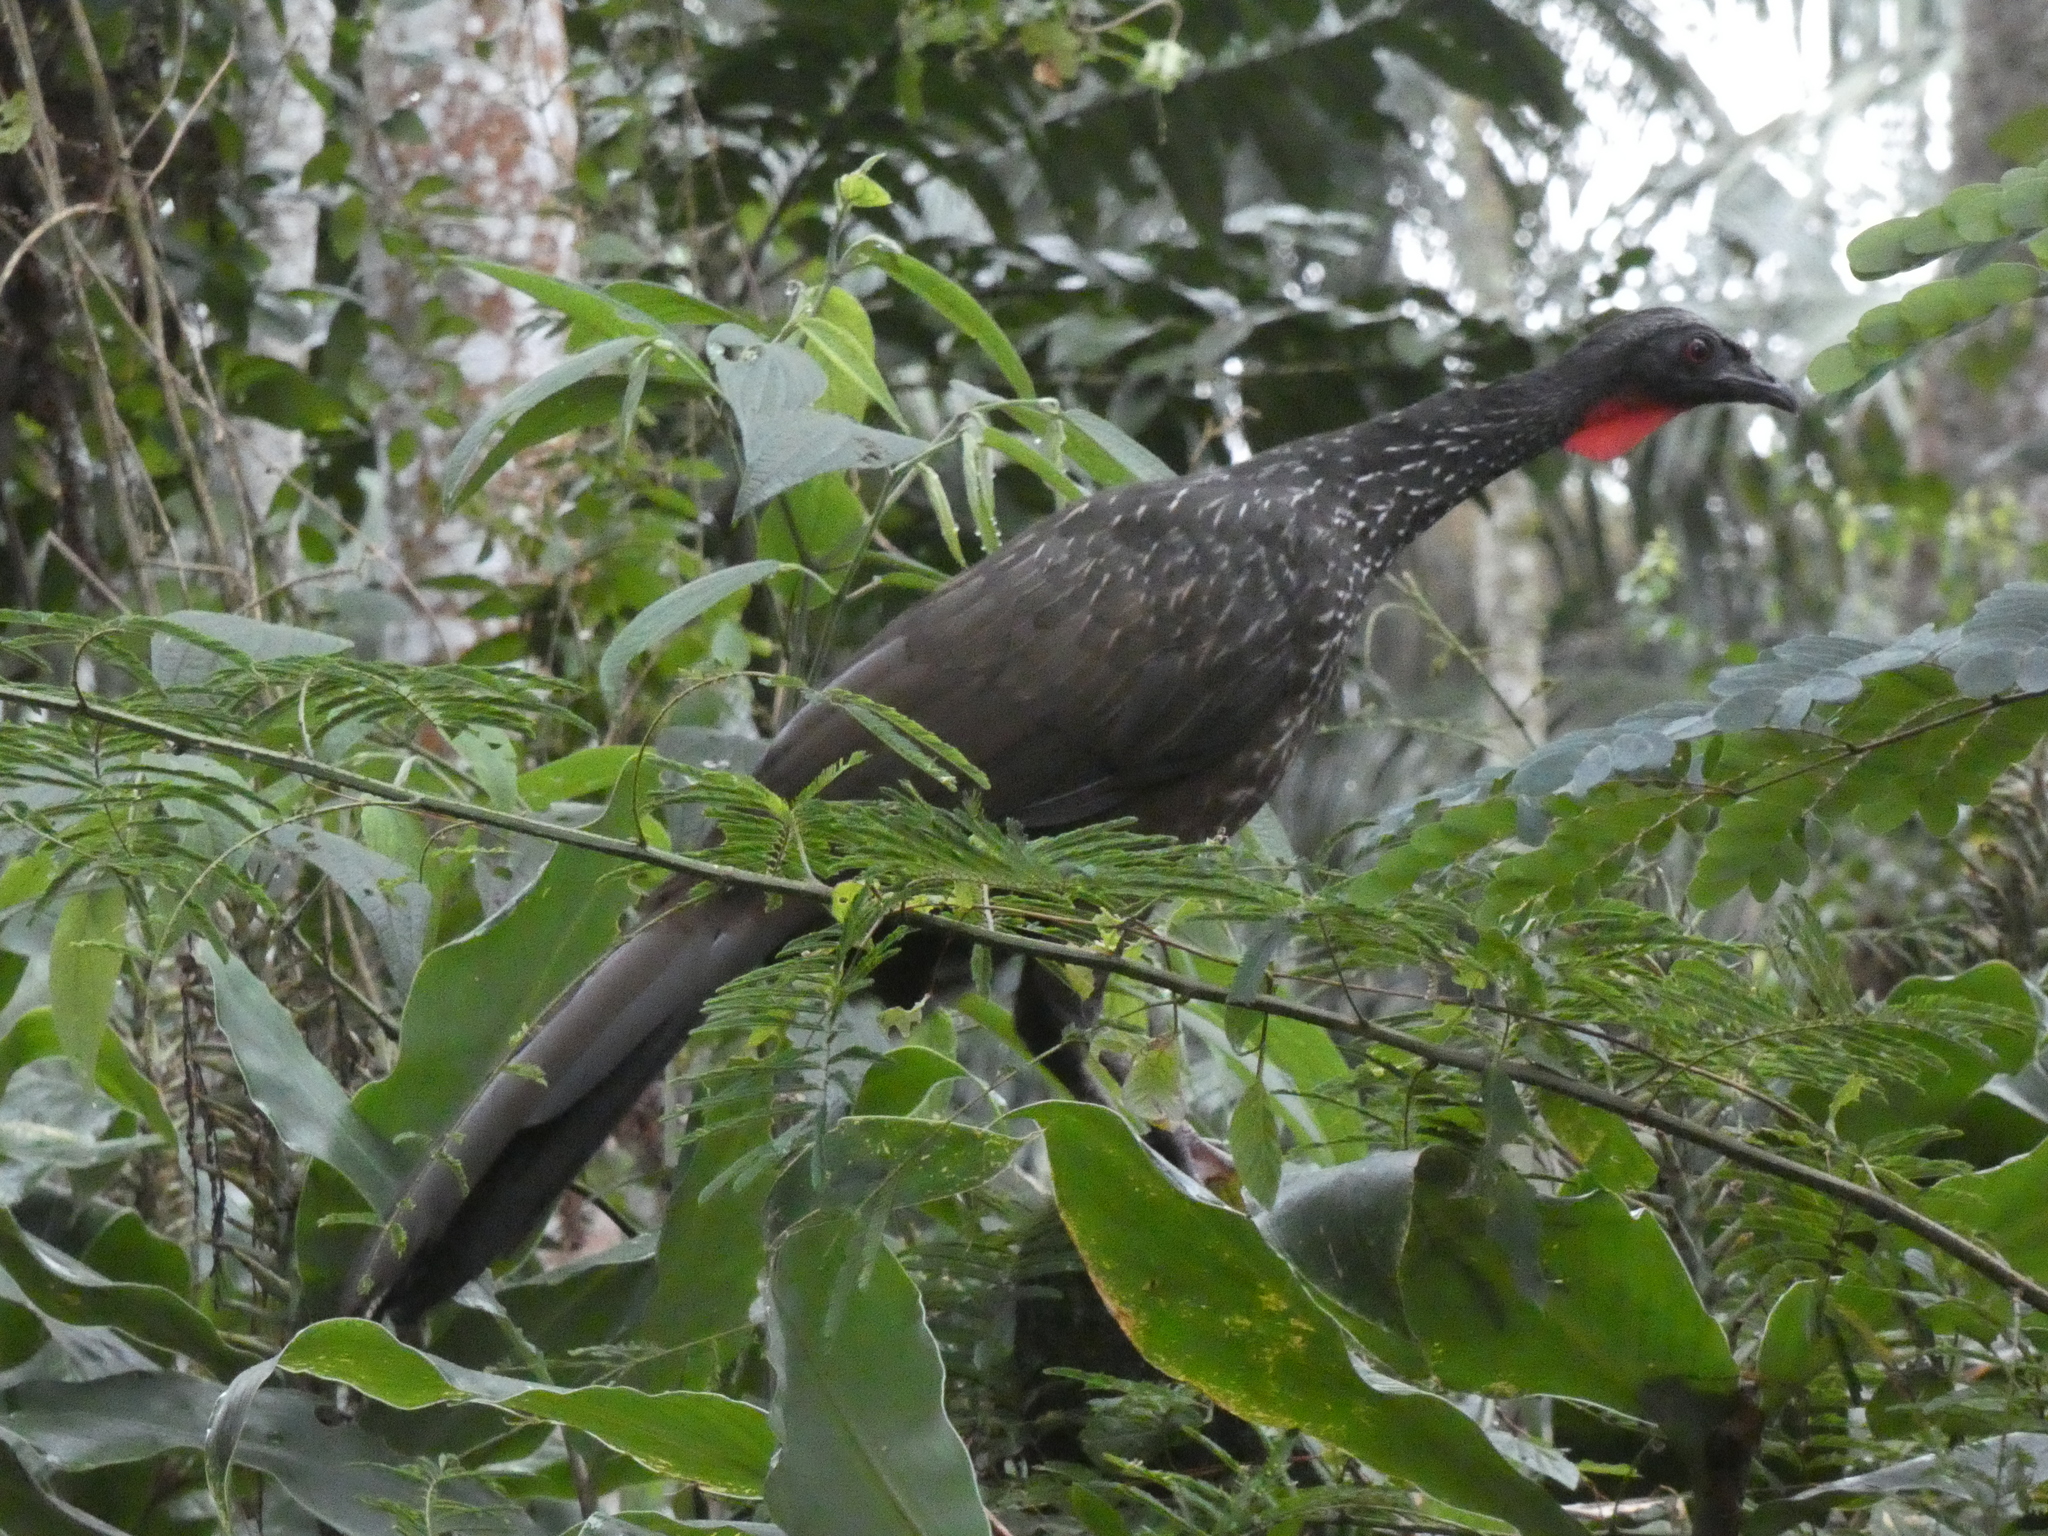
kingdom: Animalia
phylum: Chordata
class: Aves
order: Galliformes
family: Cracidae
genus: Penelope
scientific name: Penelope obscura
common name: Dusky-legged guan
